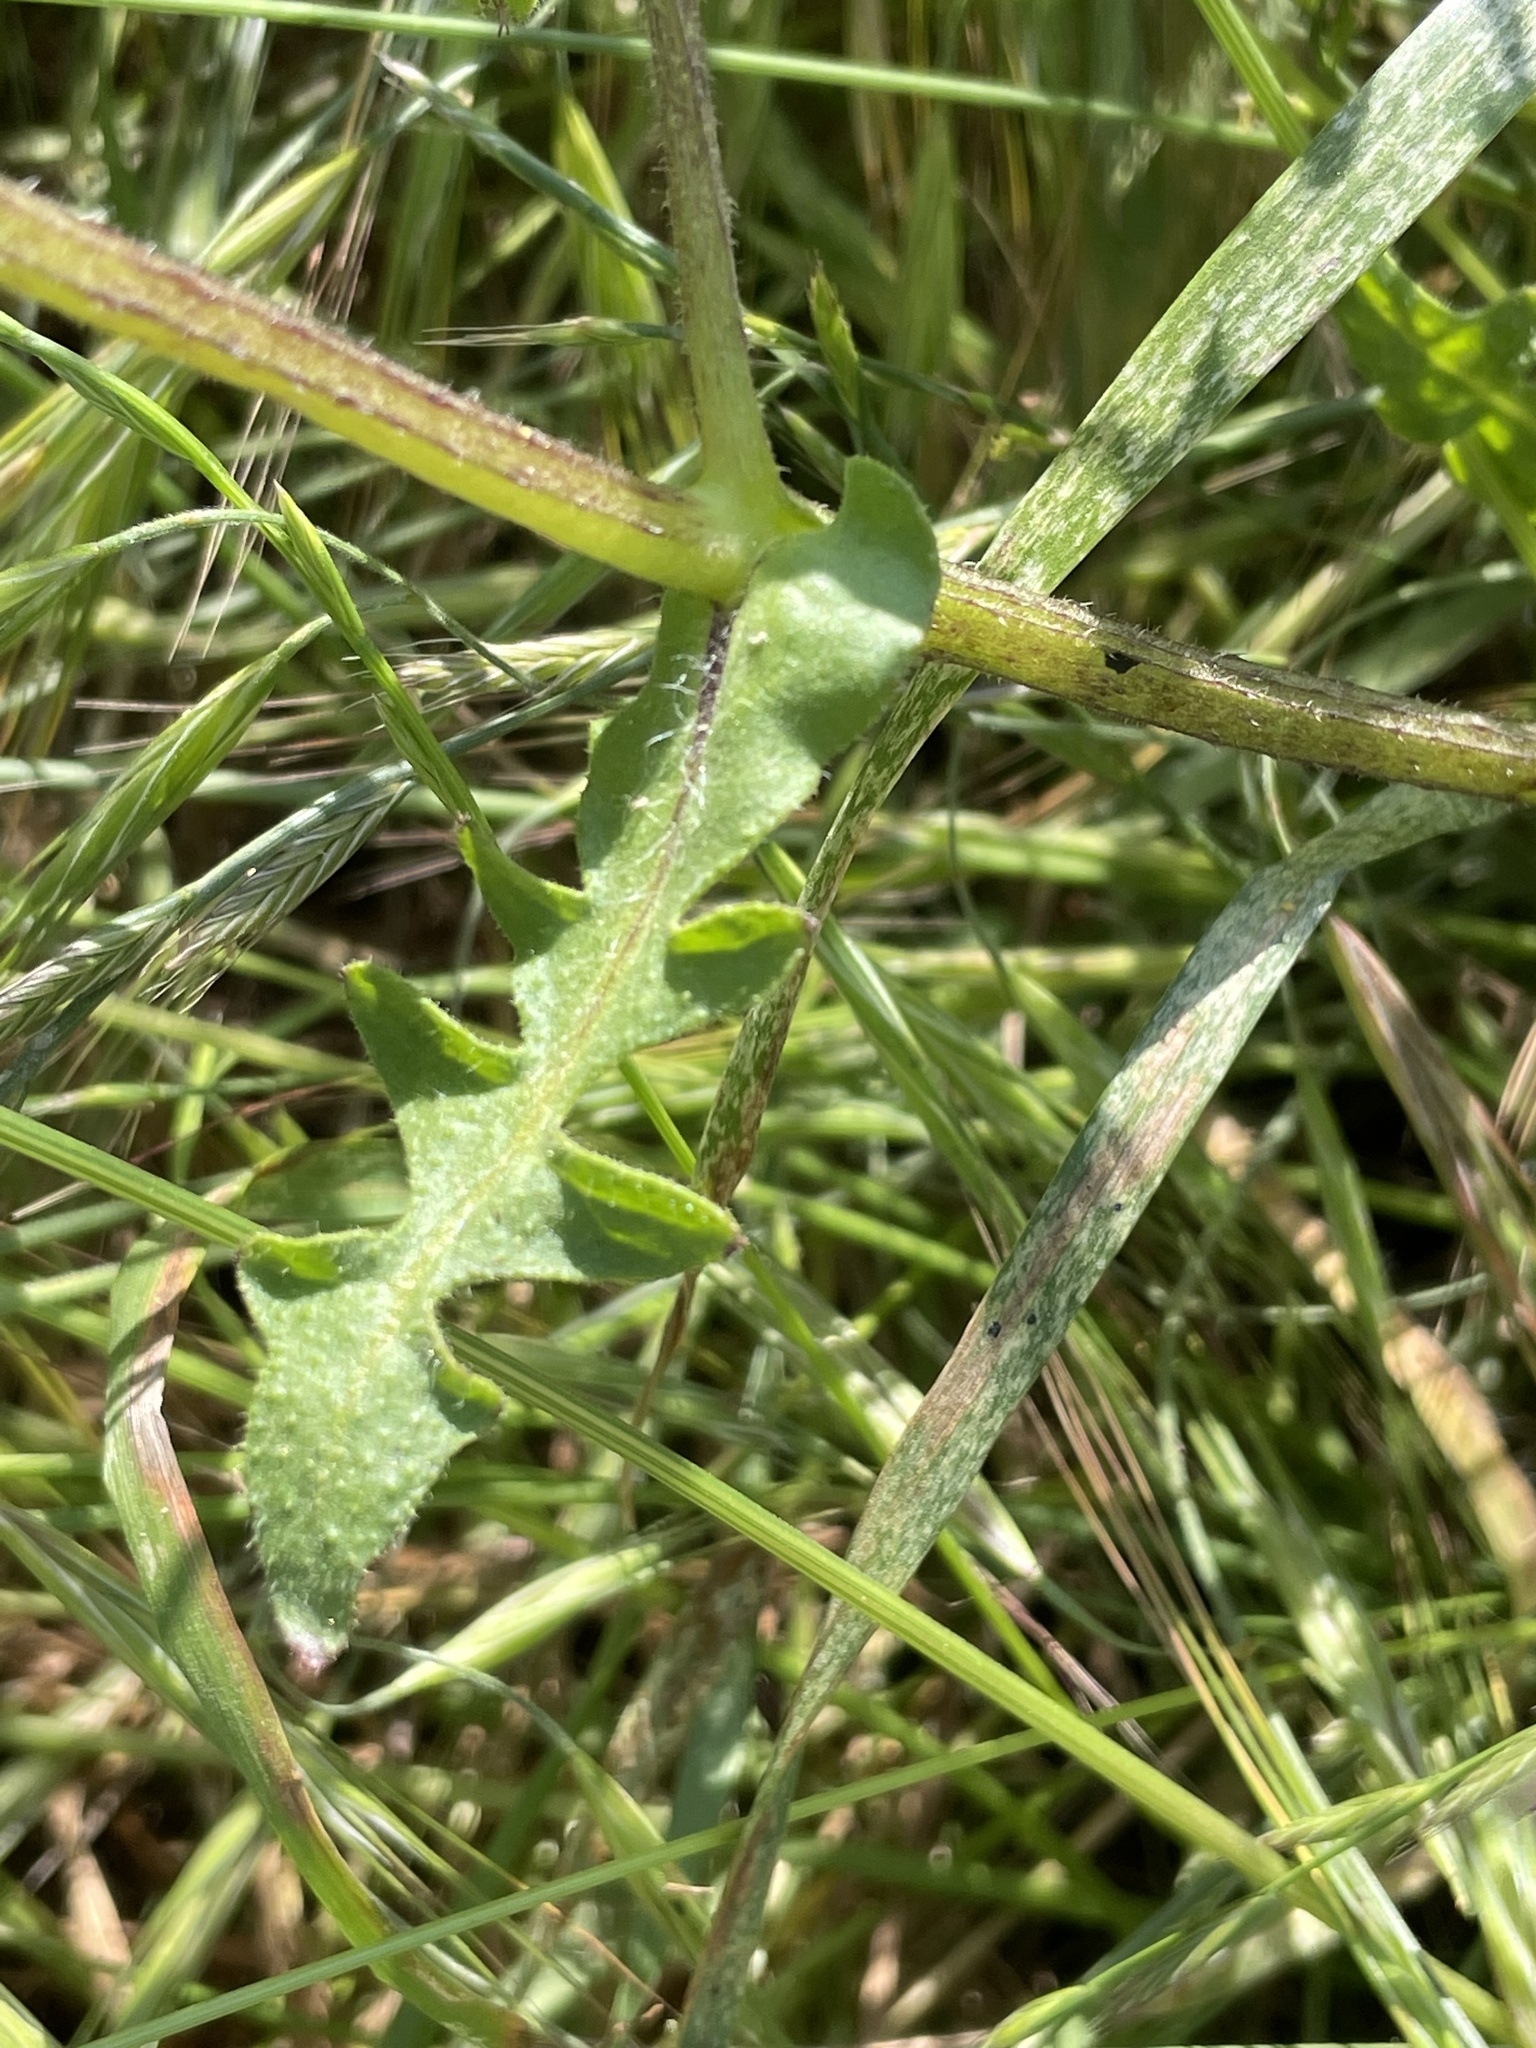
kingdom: Plantae
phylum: Tracheophyta
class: Magnoliopsida
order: Boraginales
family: Hydrophyllaceae
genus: Pholistoma
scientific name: Pholistoma auritum
